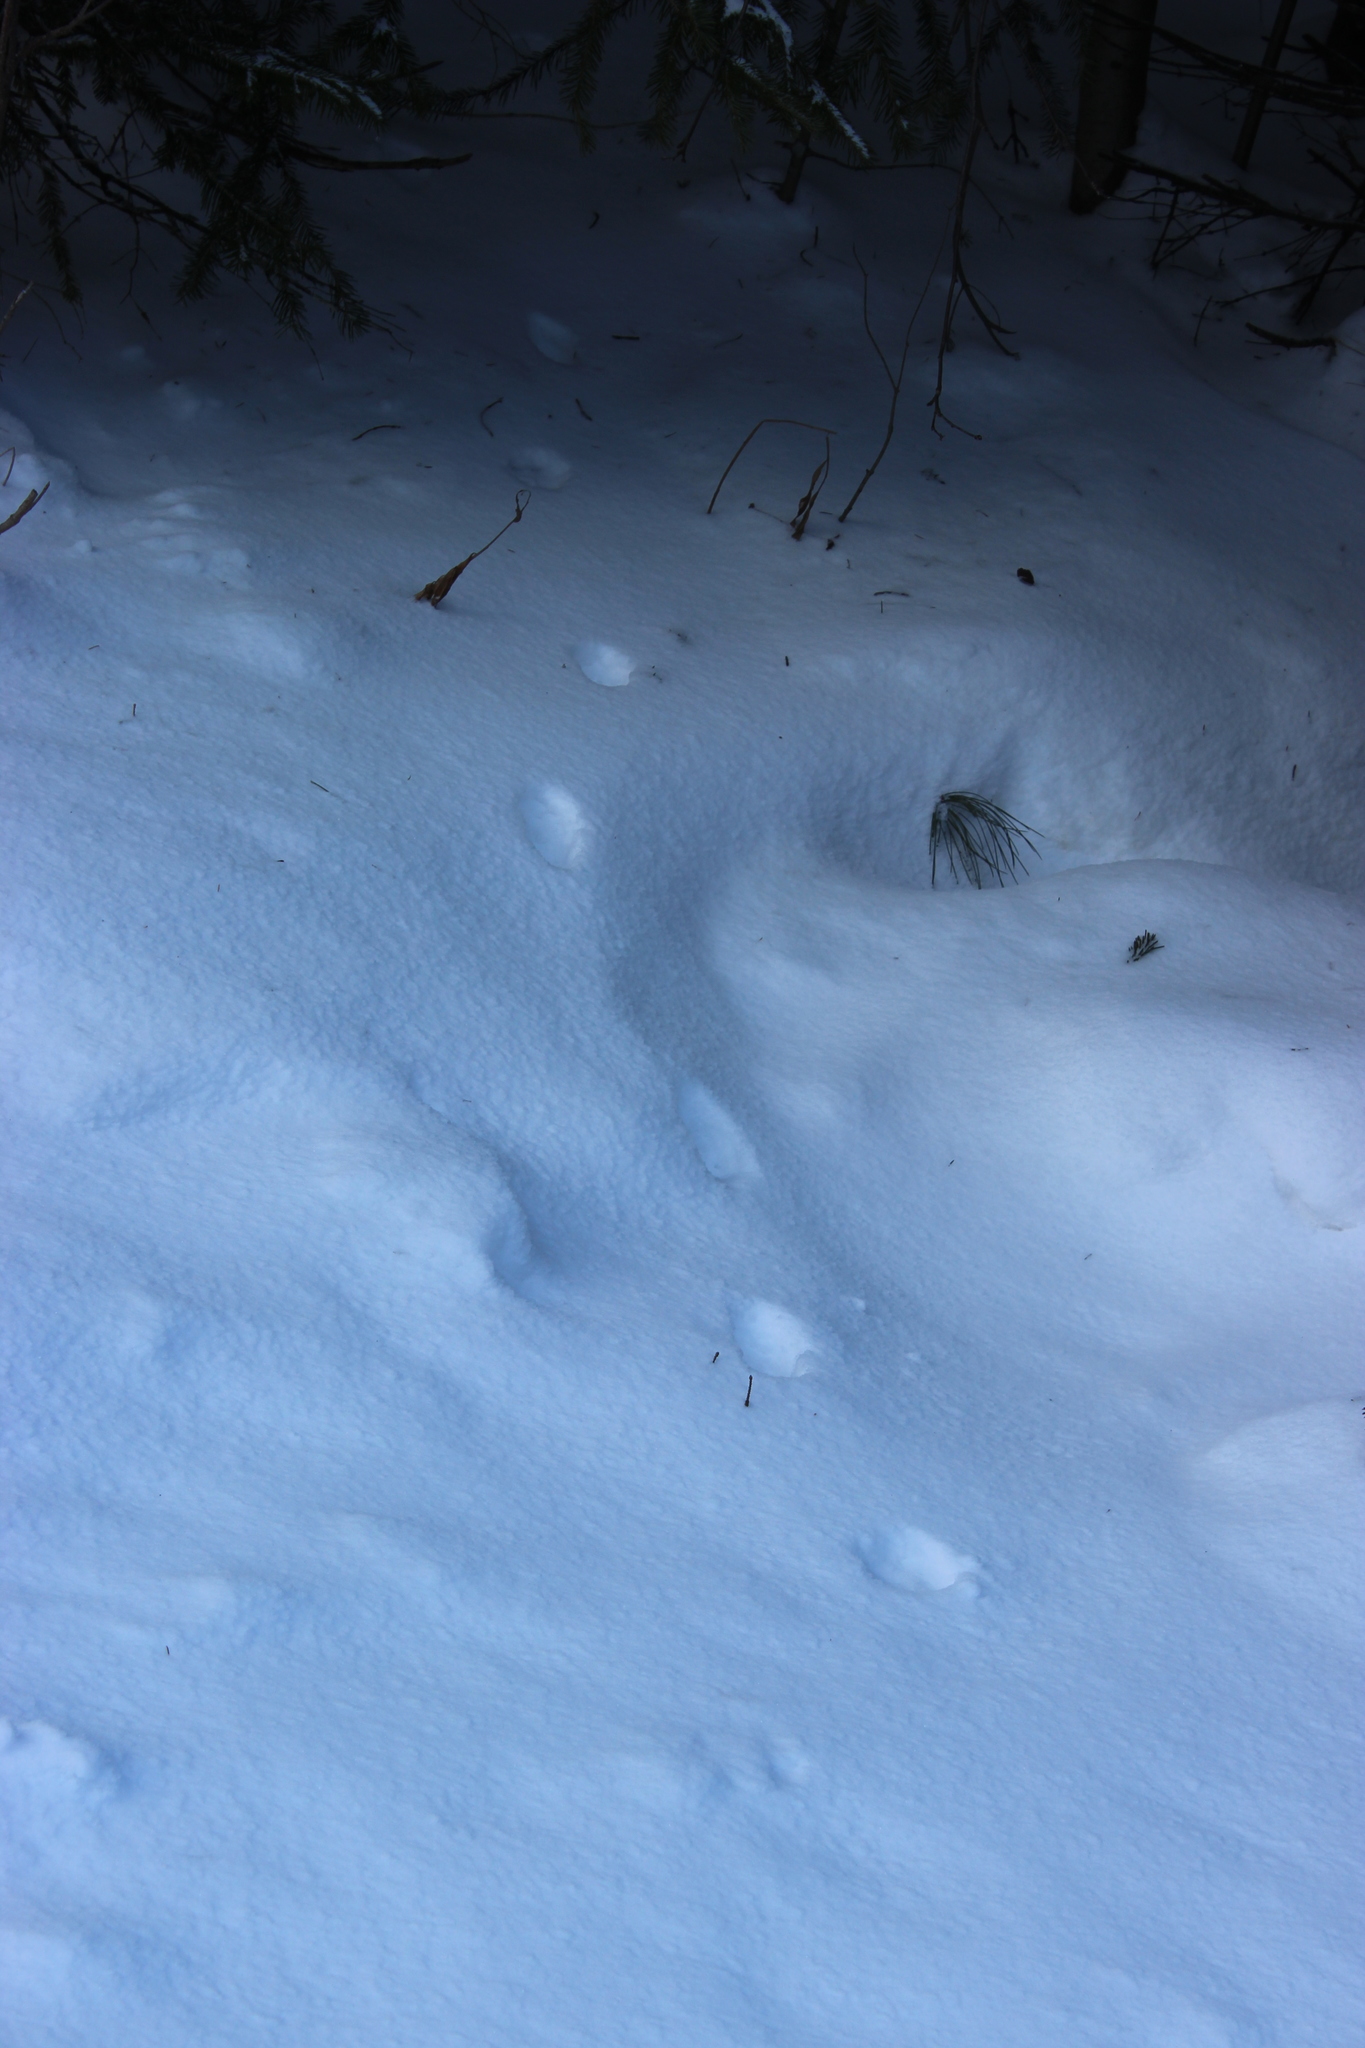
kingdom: Animalia
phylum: Chordata
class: Mammalia
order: Carnivora
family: Canidae
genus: Vulpes
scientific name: Vulpes vulpes
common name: Red fox
